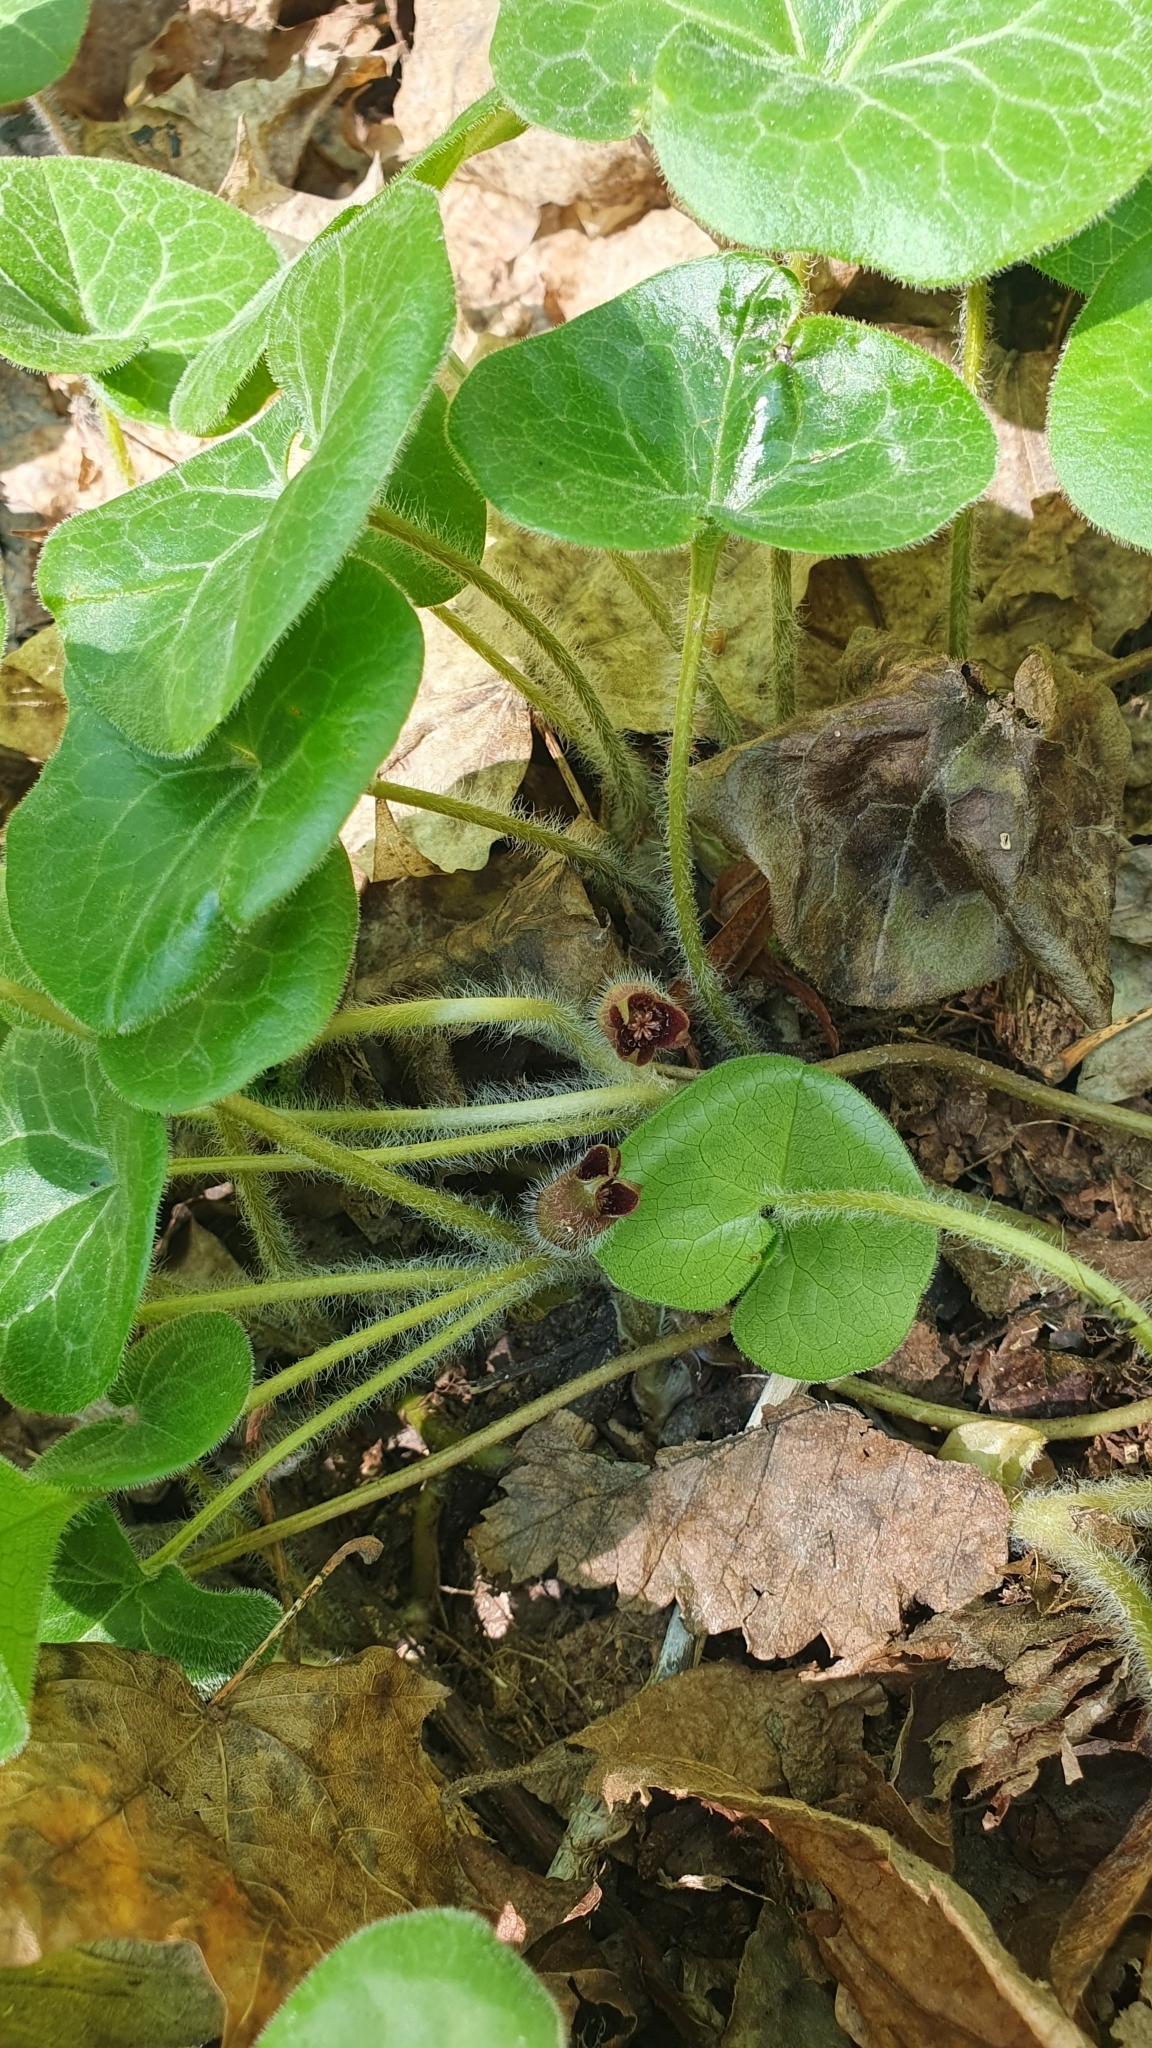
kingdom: Plantae
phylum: Tracheophyta
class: Magnoliopsida
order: Piperales
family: Aristolochiaceae
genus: Asarum
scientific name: Asarum europaeum
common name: Asarabacca
